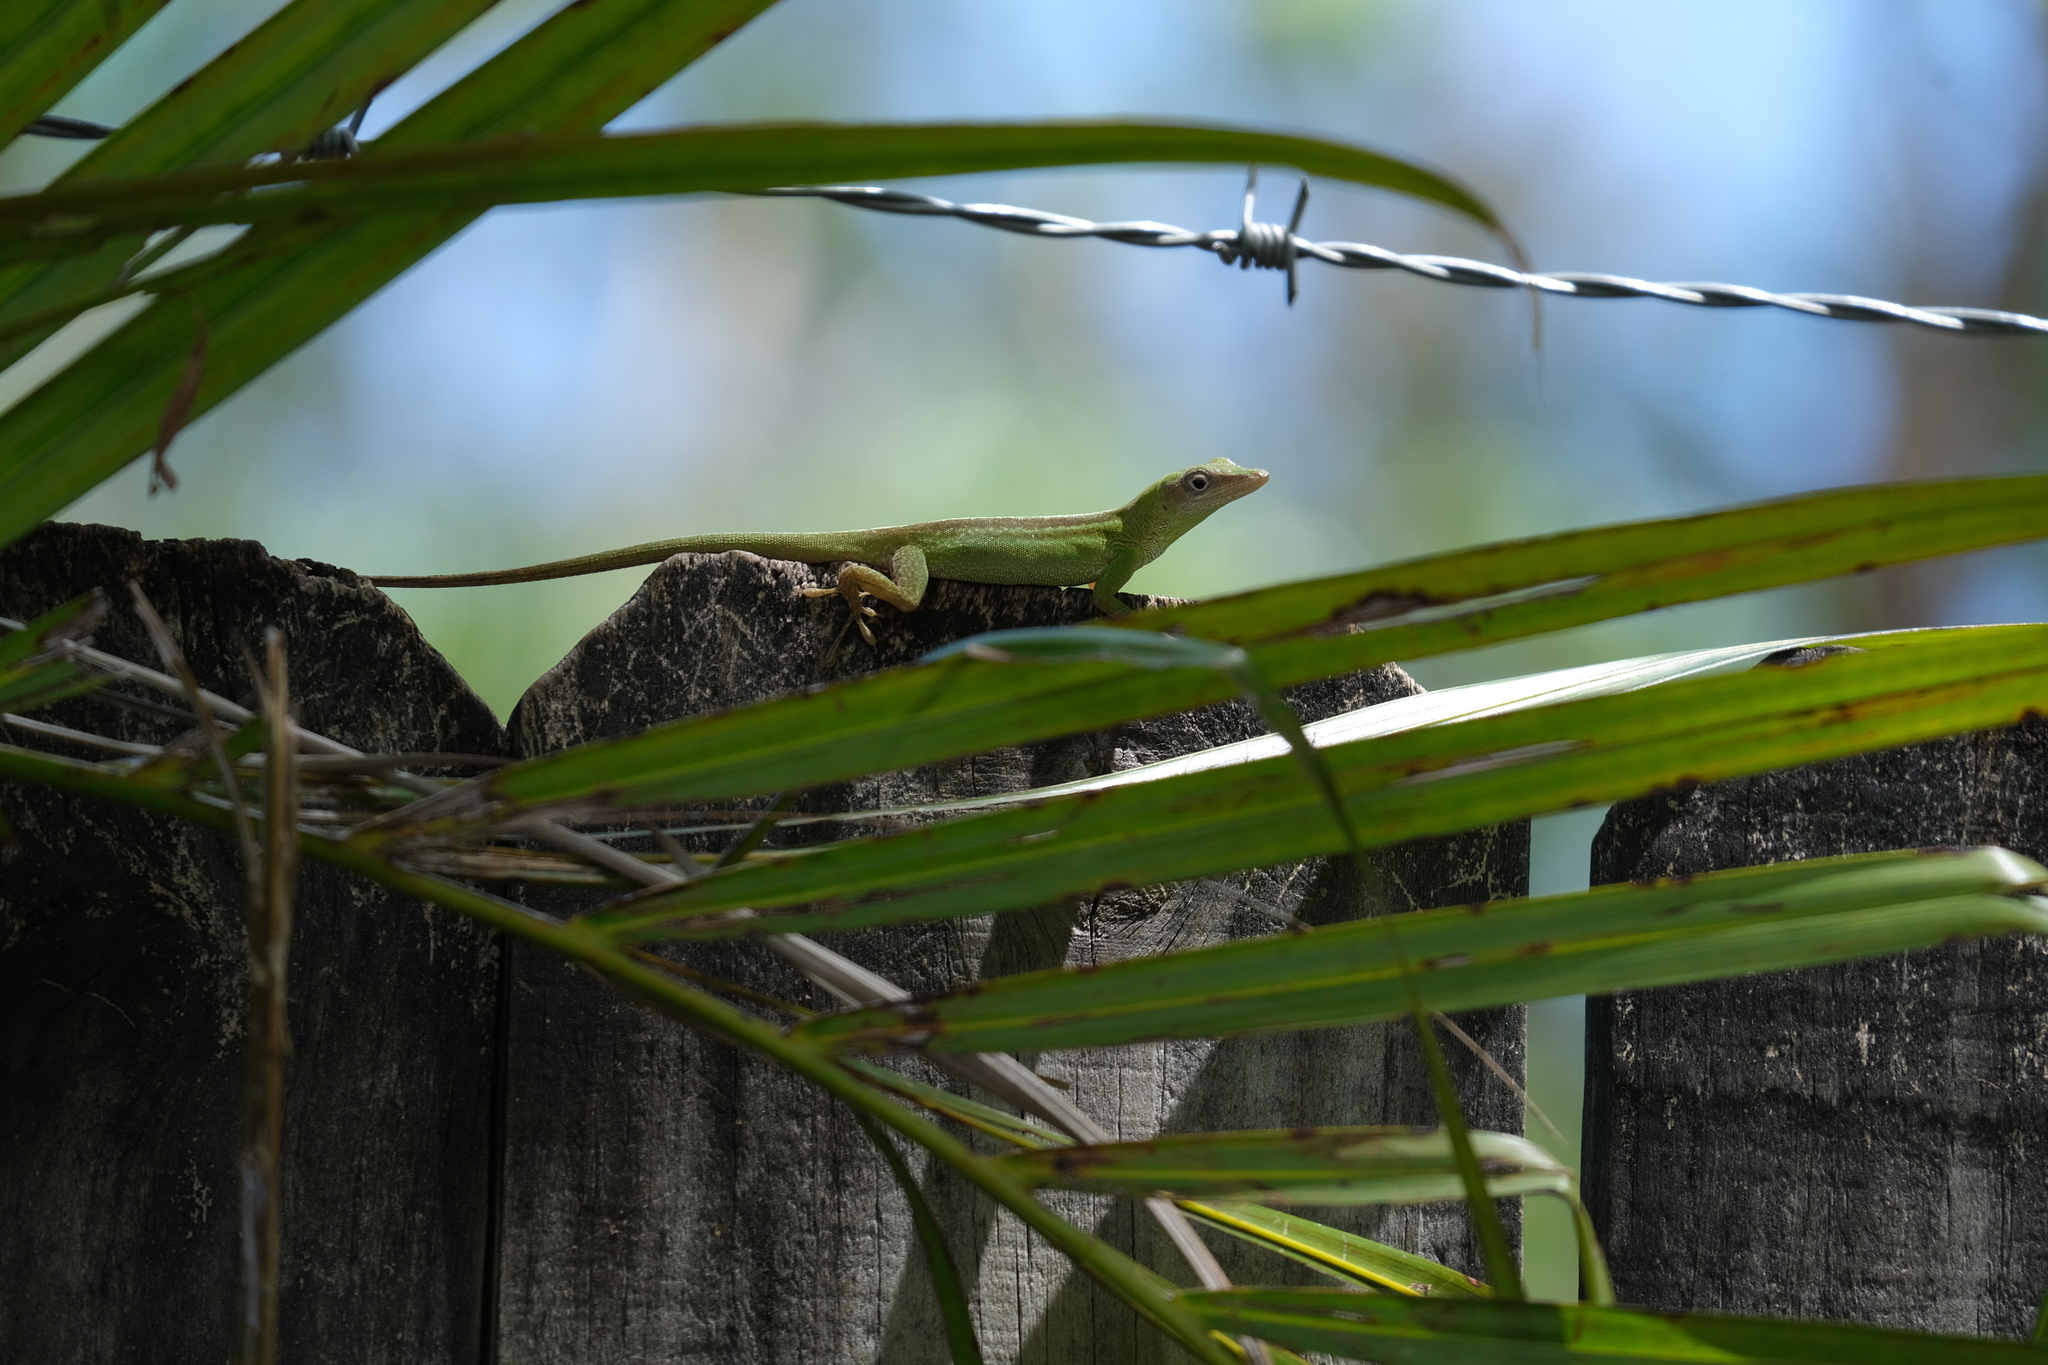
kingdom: Animalia
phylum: Chordata
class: Squamata
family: Dactyloidae
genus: Anolis
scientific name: Anolis chlorocyanus
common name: Hispaniolan green anole
